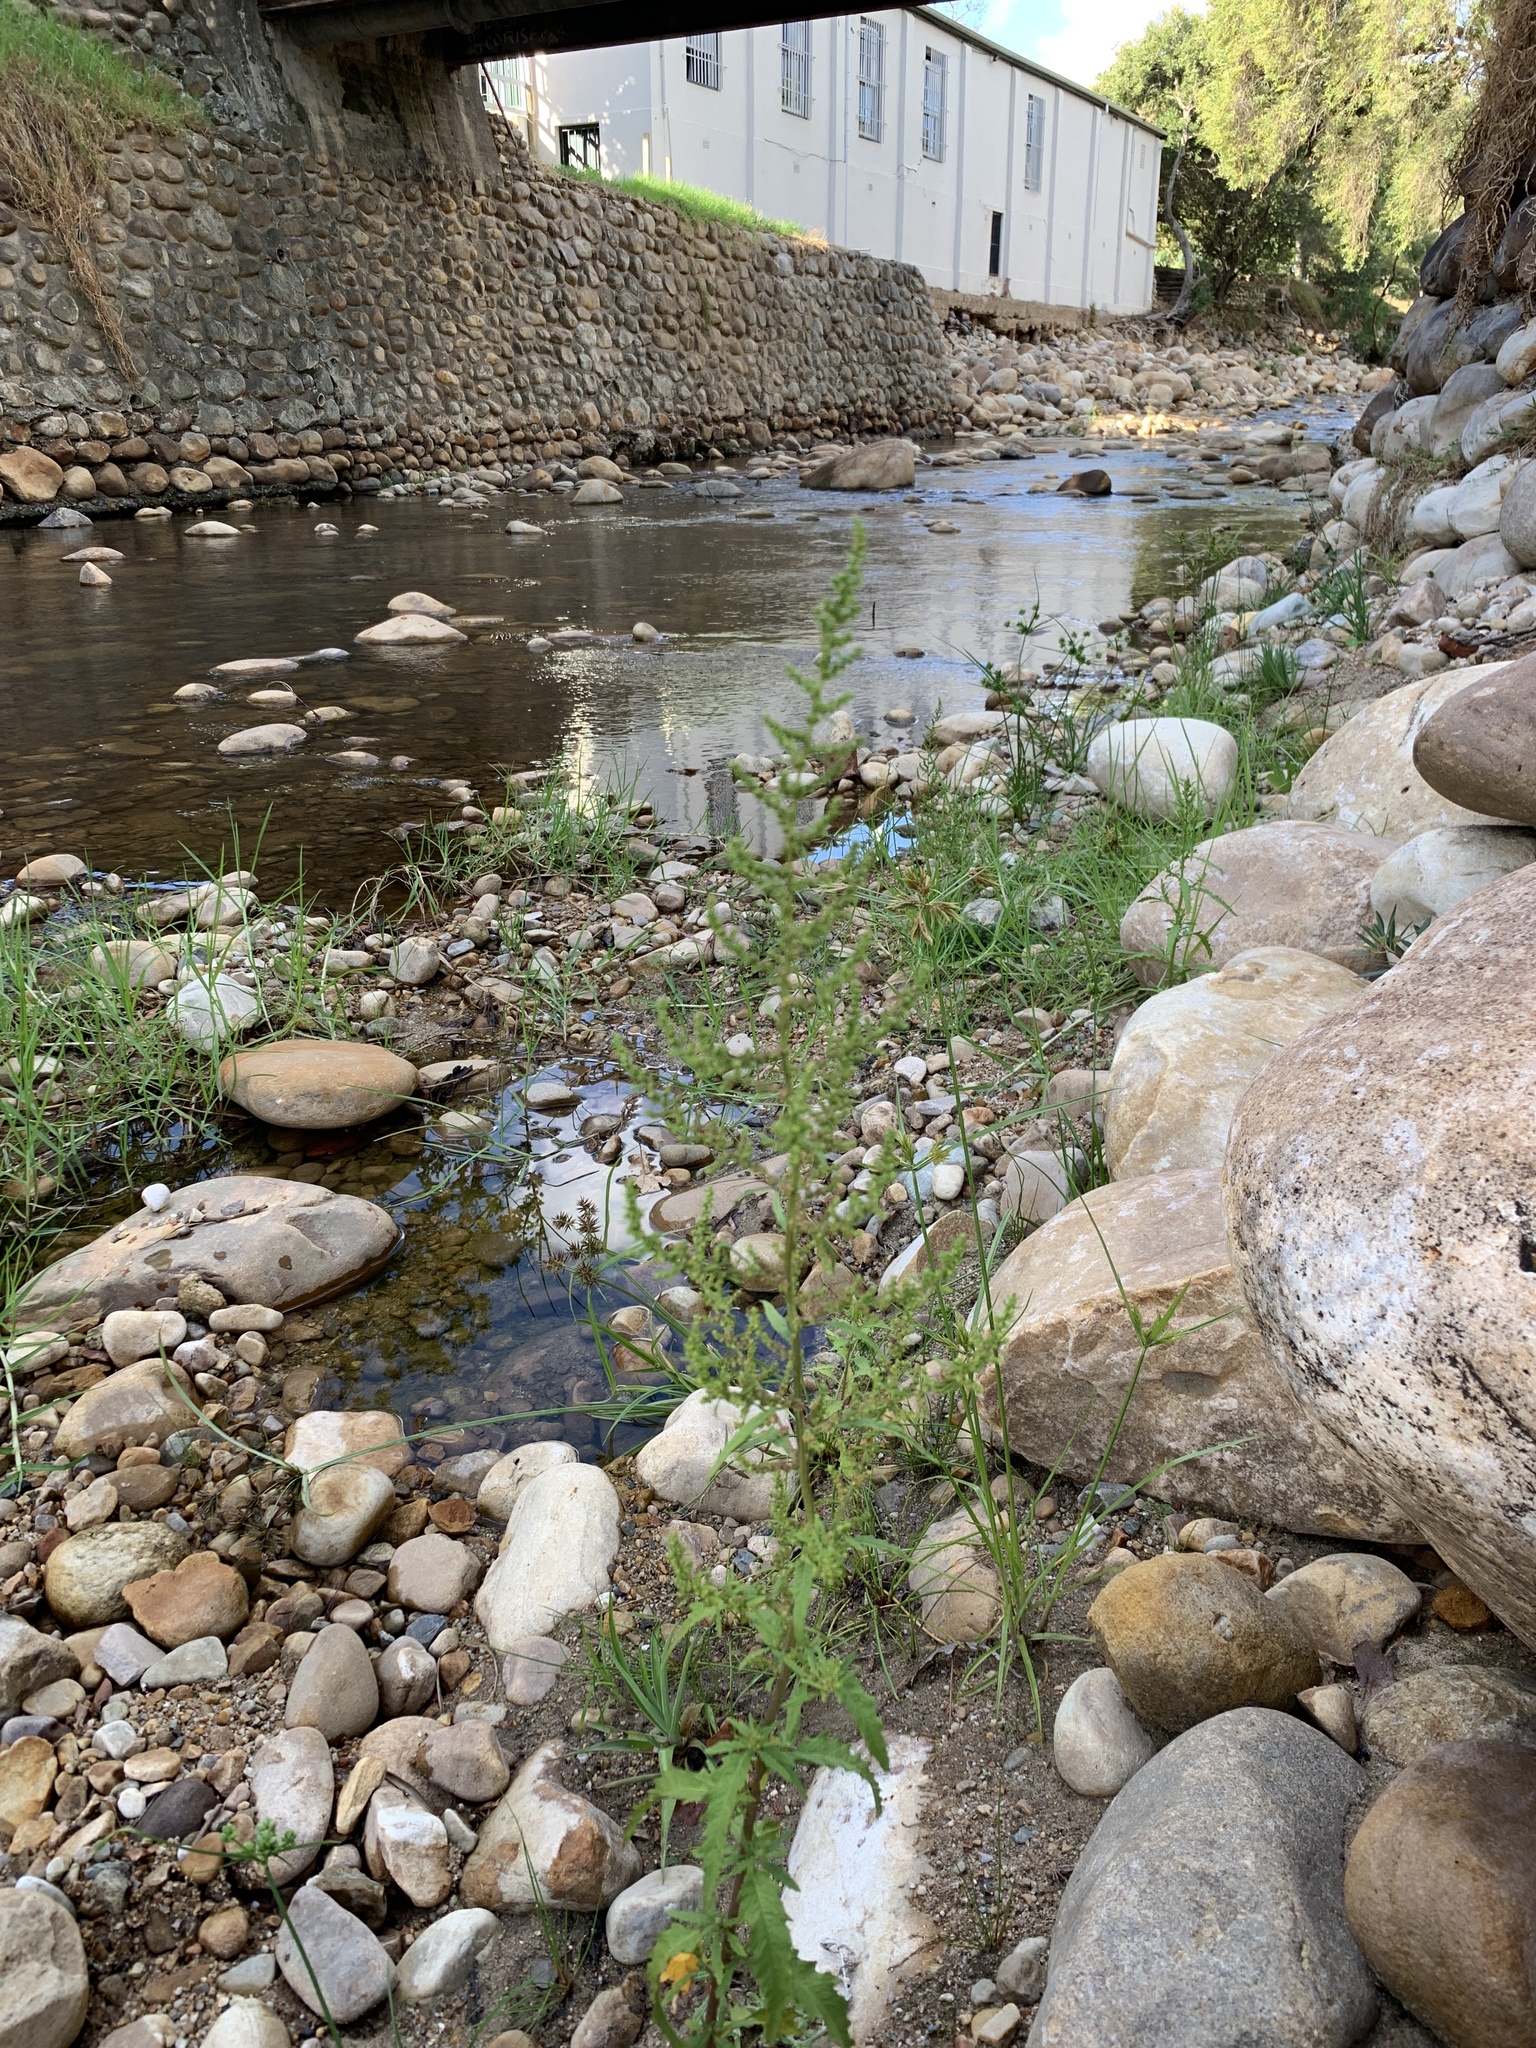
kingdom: Plantae
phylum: Tracheophyta
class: Magnoliopsida
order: Caryophyllales
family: Amaranthaceae
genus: Dysphania
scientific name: Dysphania ambrosioides
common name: Wormseed
